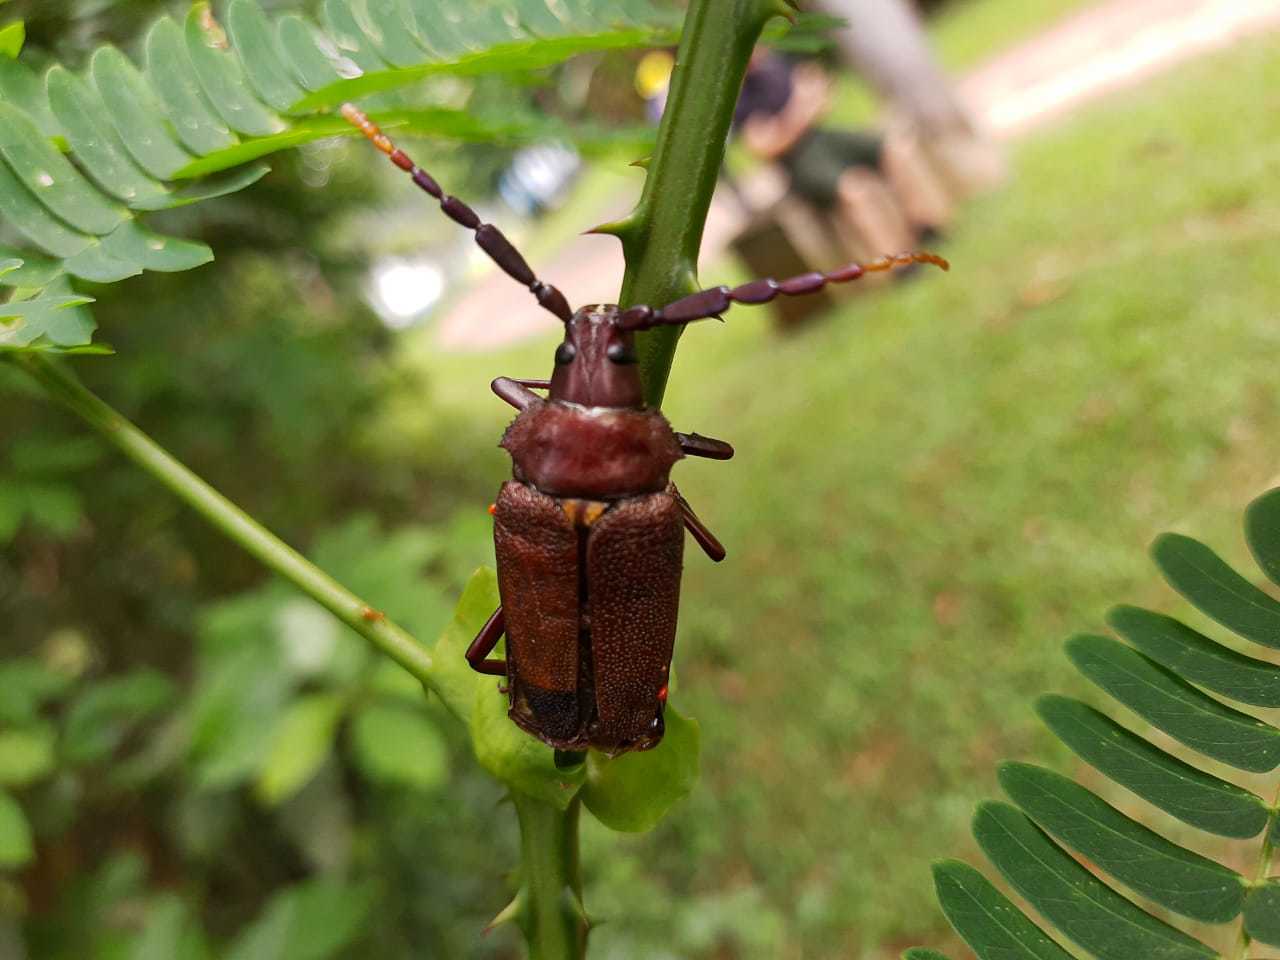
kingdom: Animalia
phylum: Arthropoda
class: Insecta
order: Coleoptera
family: Cerambycidae
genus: Praemallaspis
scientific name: Praemallaspis leucaspis
